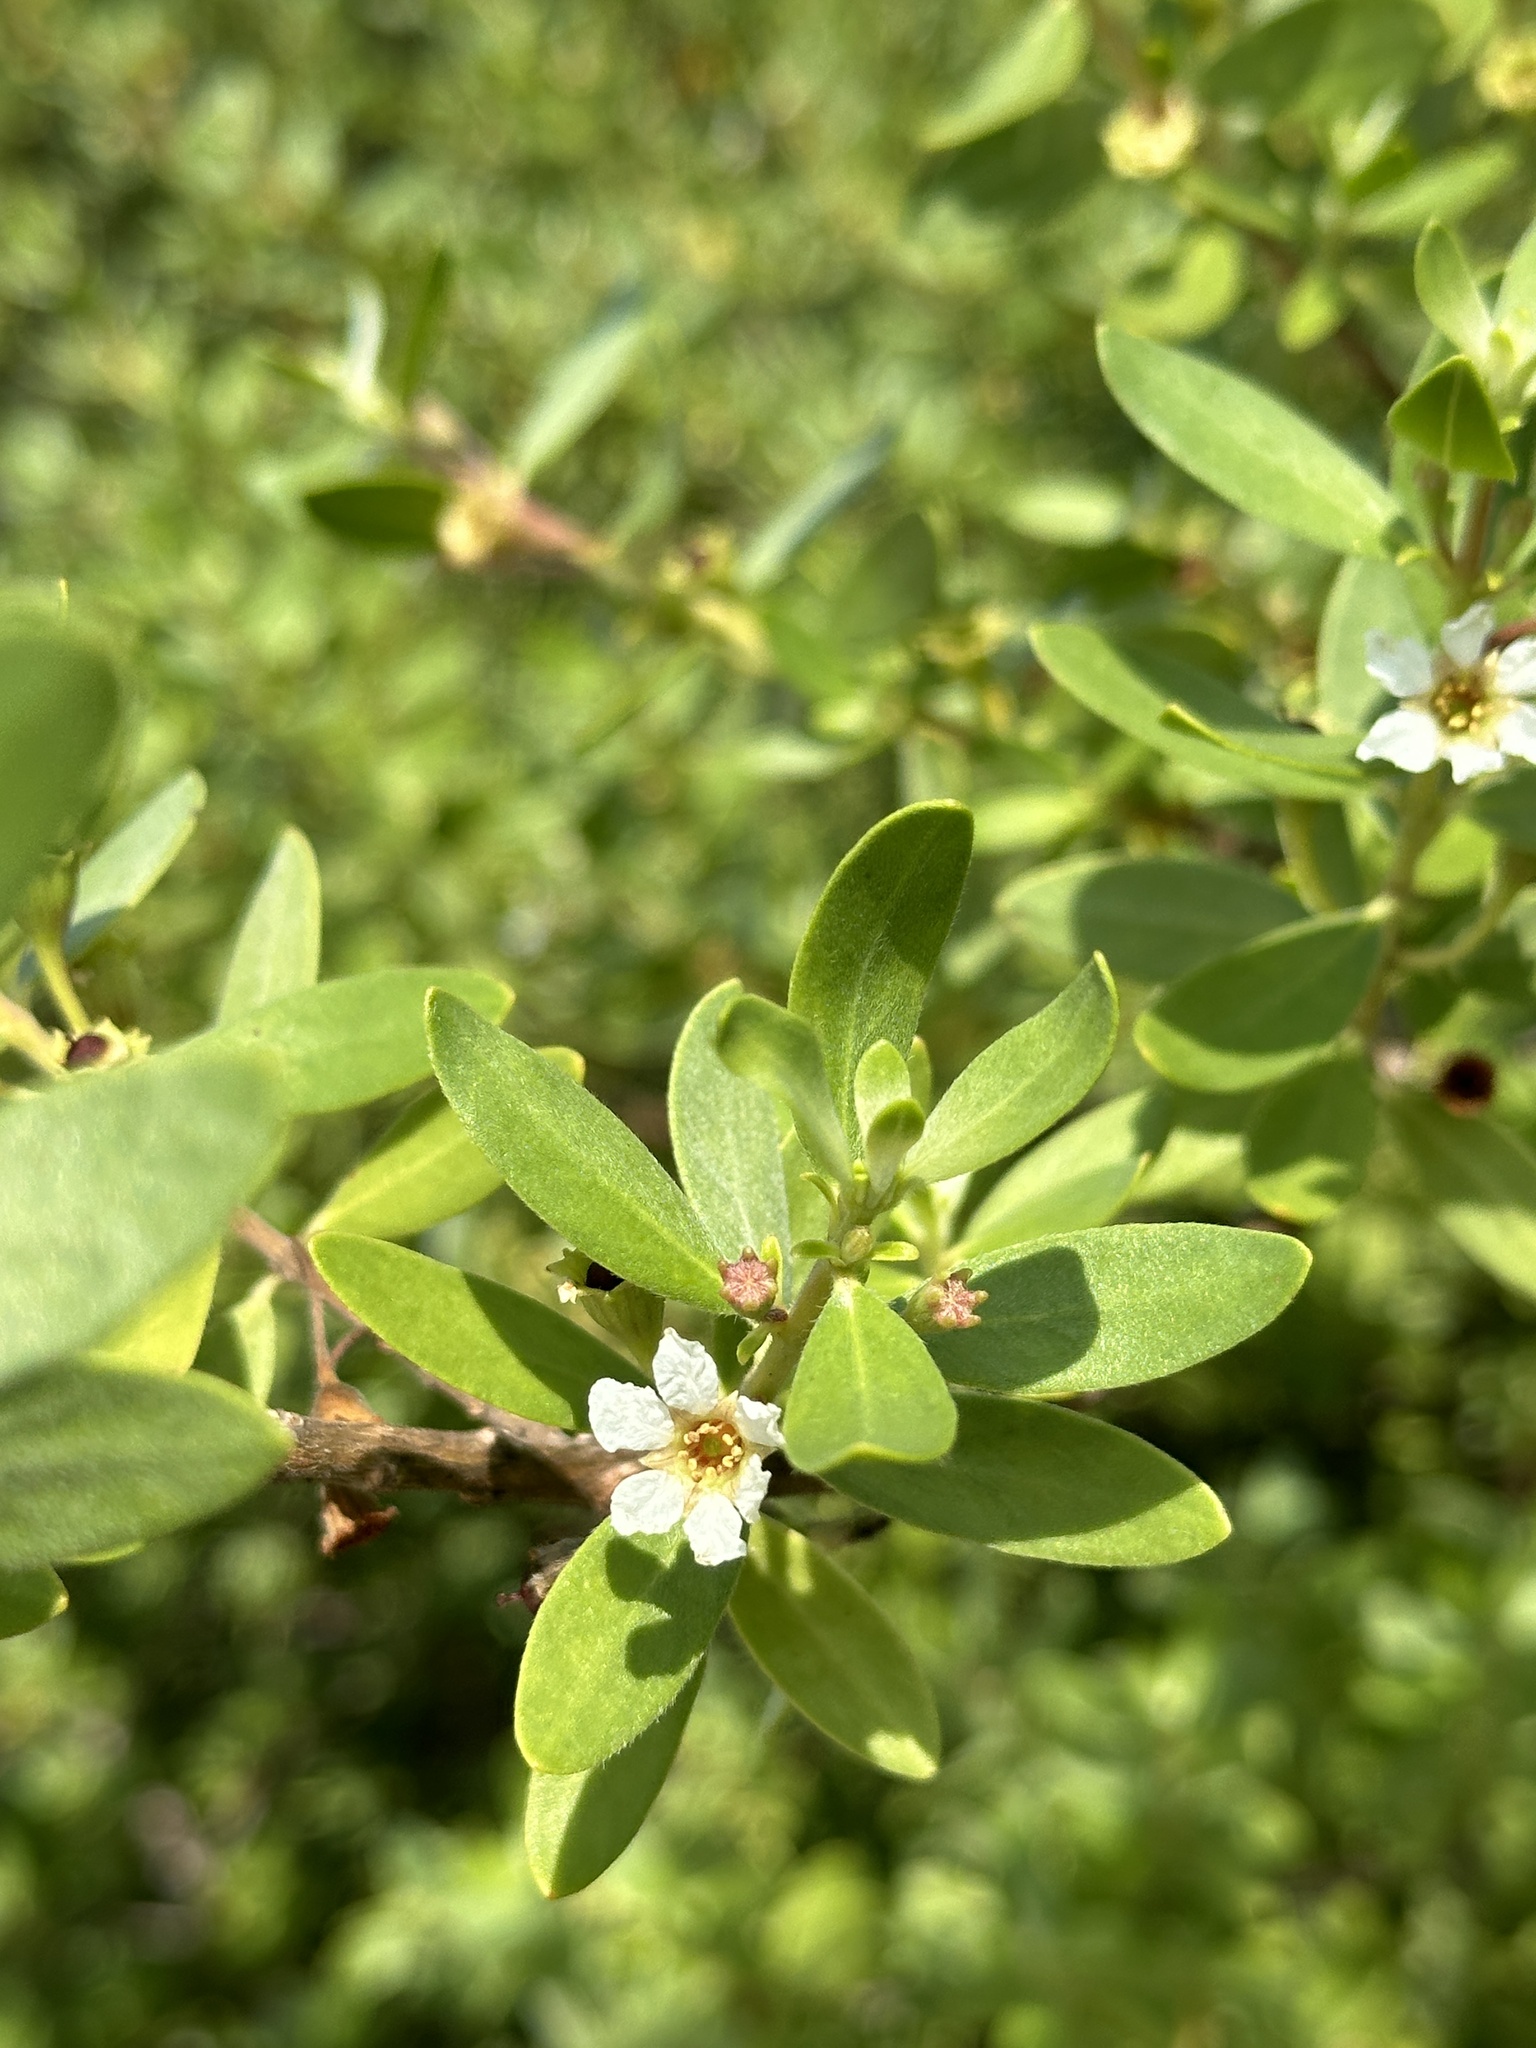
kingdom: Plantae
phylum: Tracheophyta
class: Magnoliopsida
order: Myrtales
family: Lythraceae
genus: Pemphis
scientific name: Pemphis acidula
